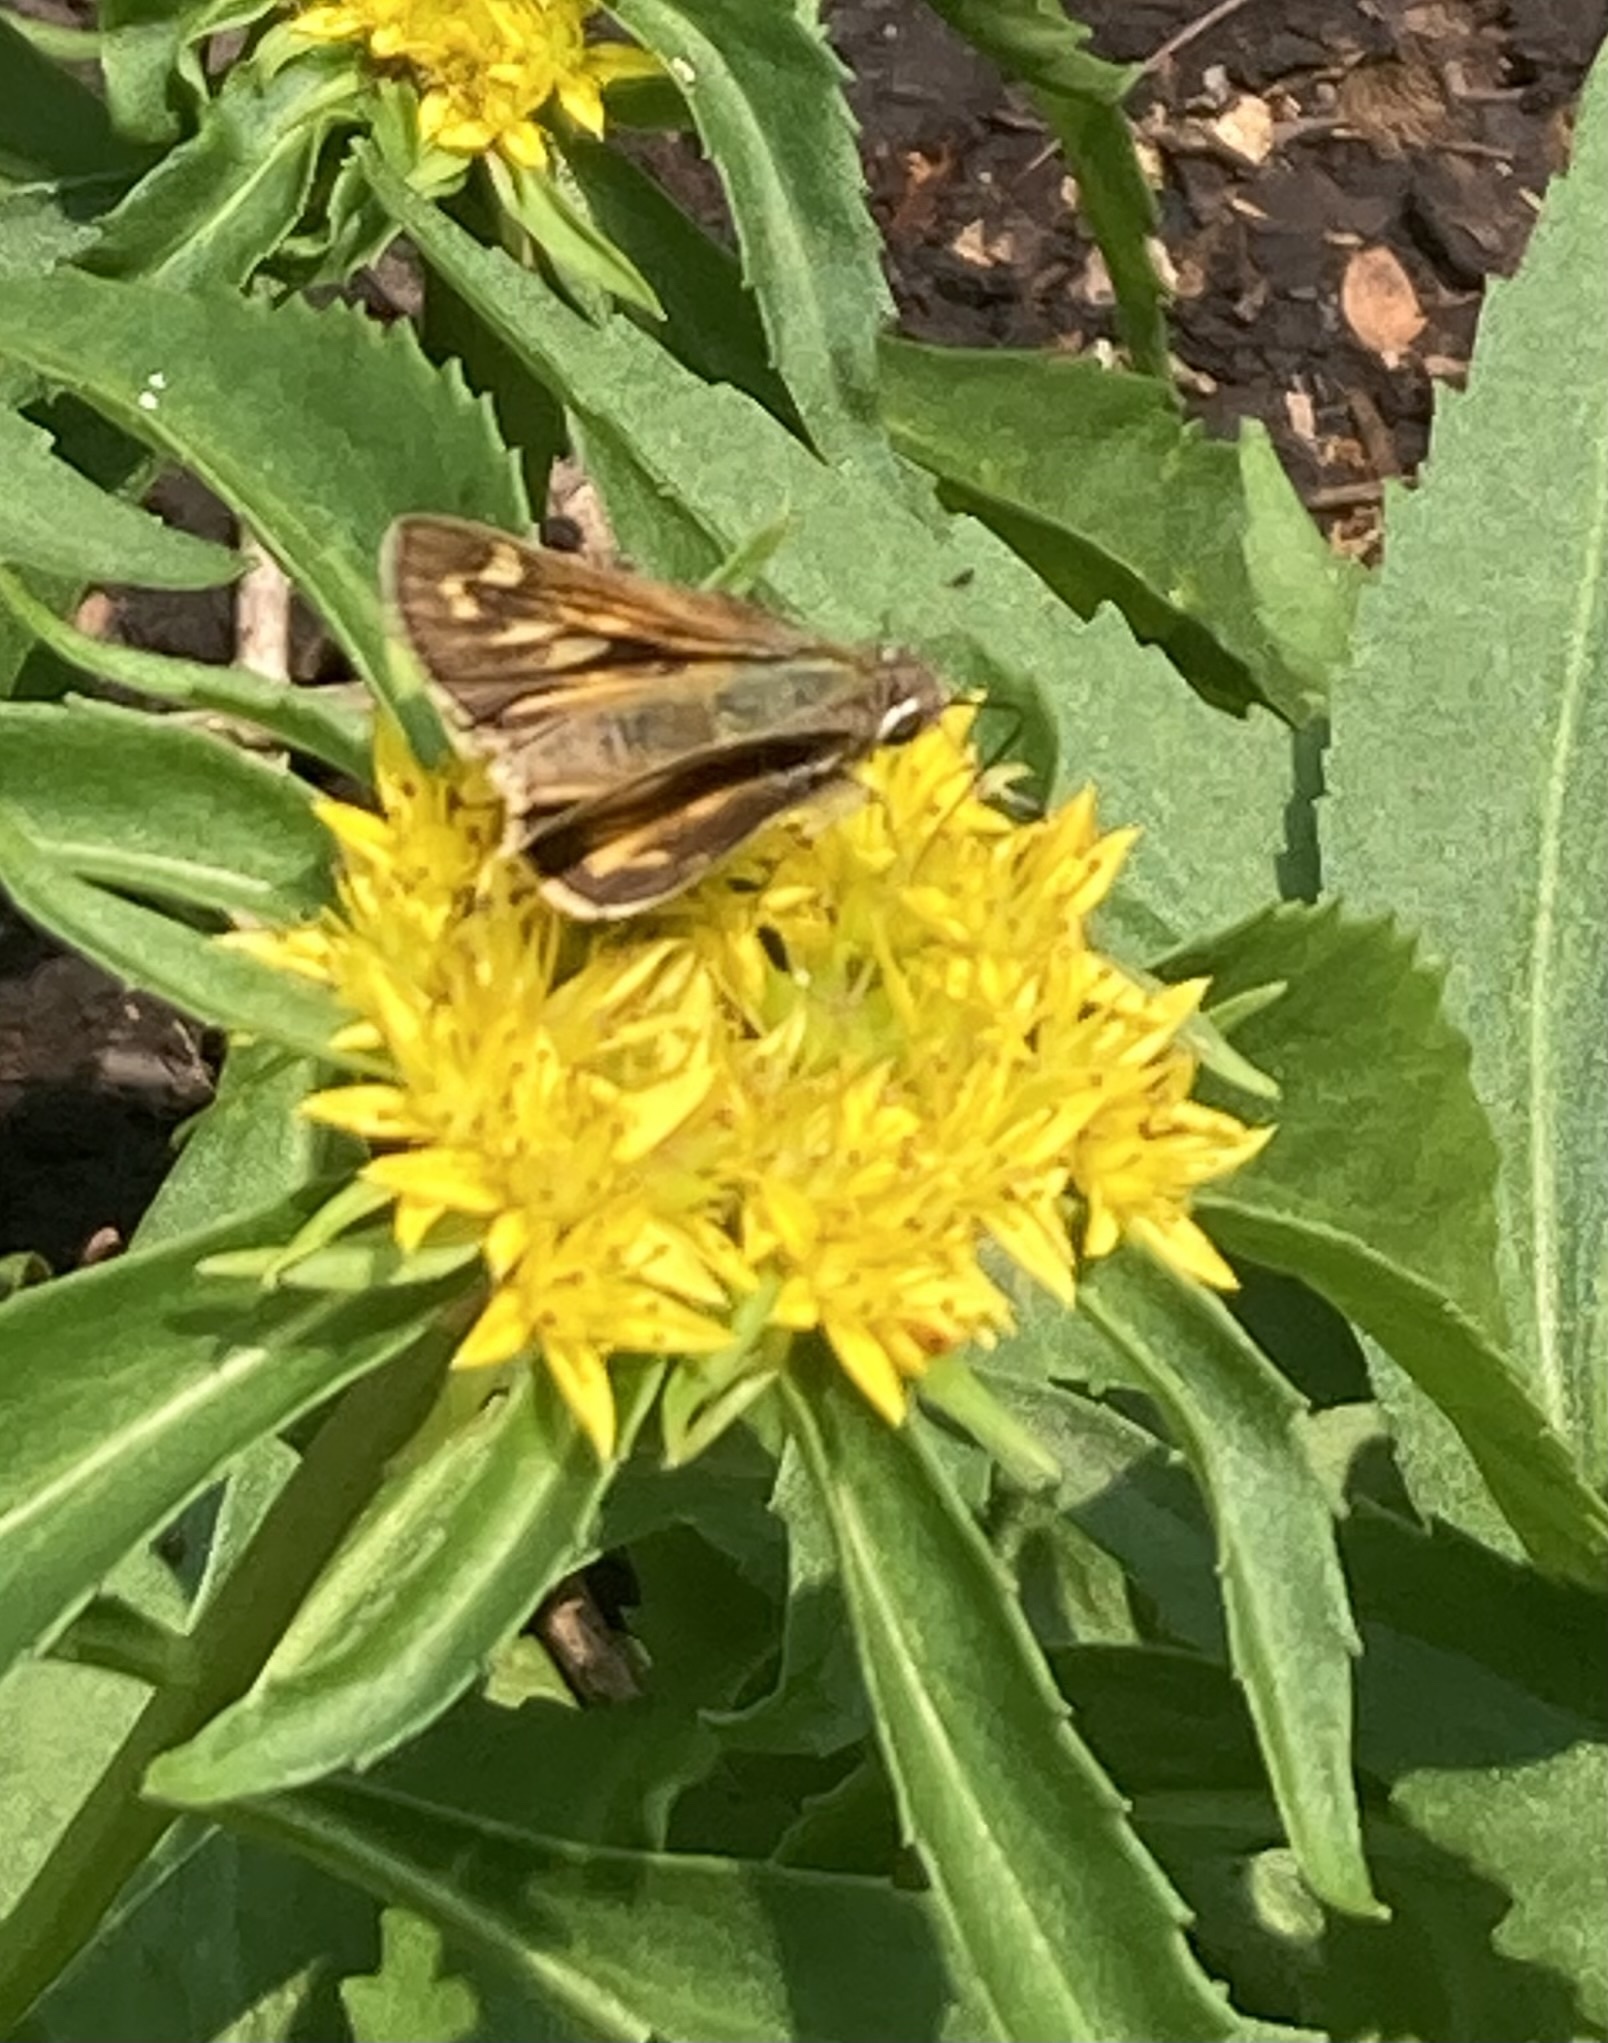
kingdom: Animalia
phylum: Arthropoda
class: Insecta
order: Lepidoptera
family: Hesperiidae
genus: Atalopedes
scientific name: Atalopedes
